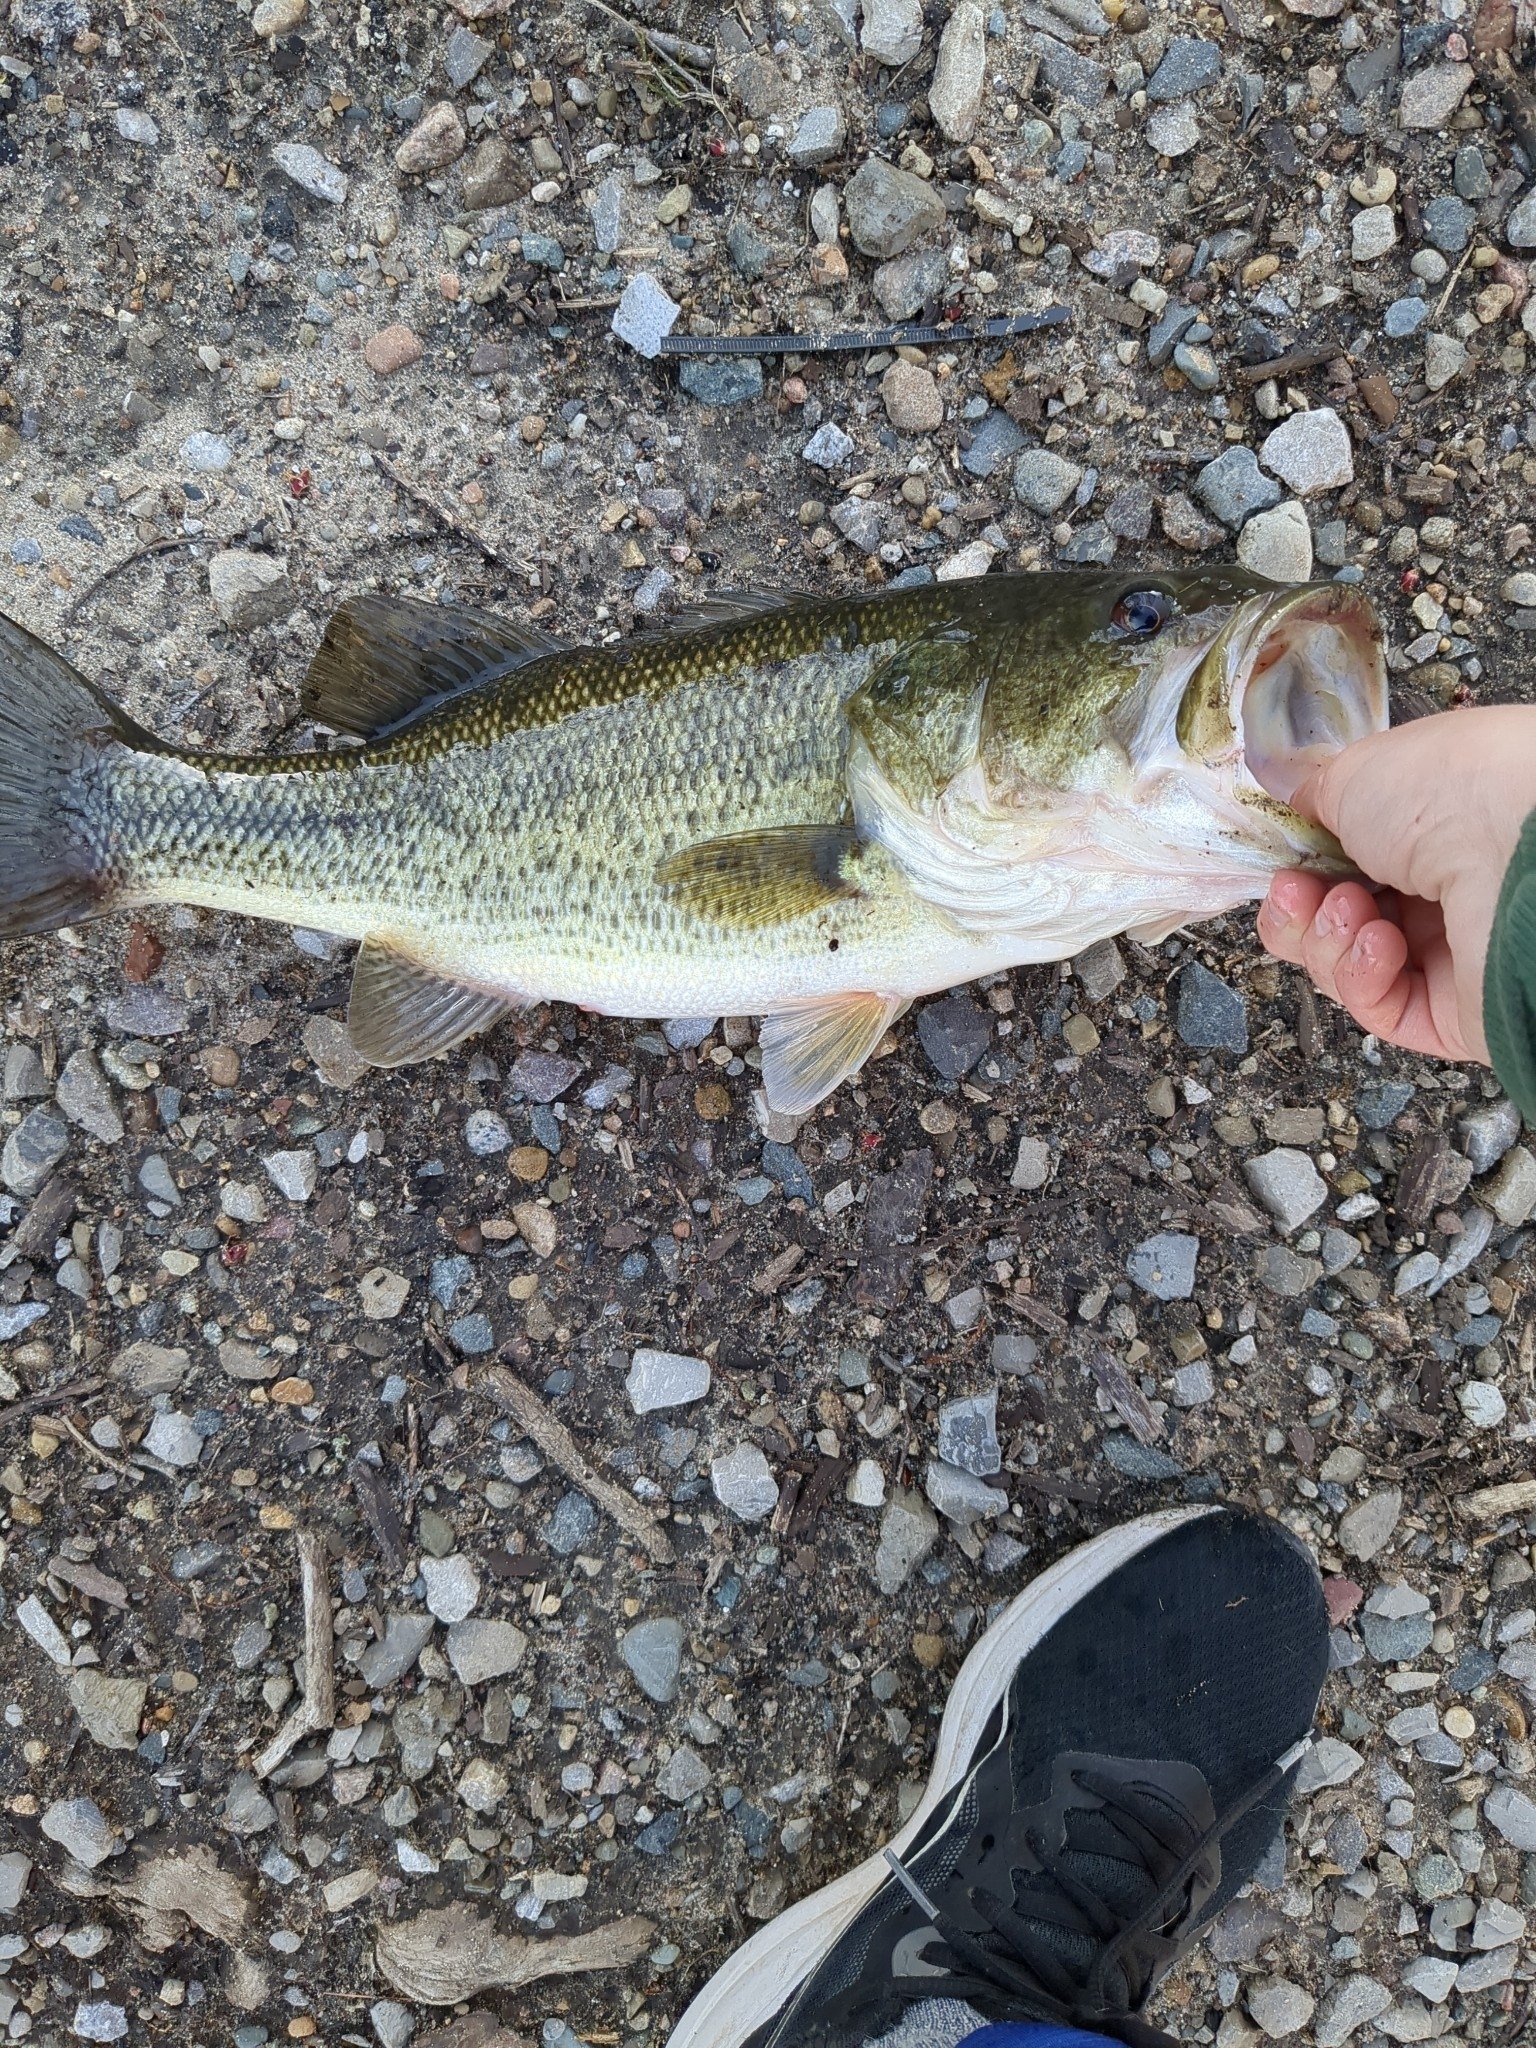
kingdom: Animalia
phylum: Chordata
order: Perciformes
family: Centrarchidae
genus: Micropterus
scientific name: Micropterus
